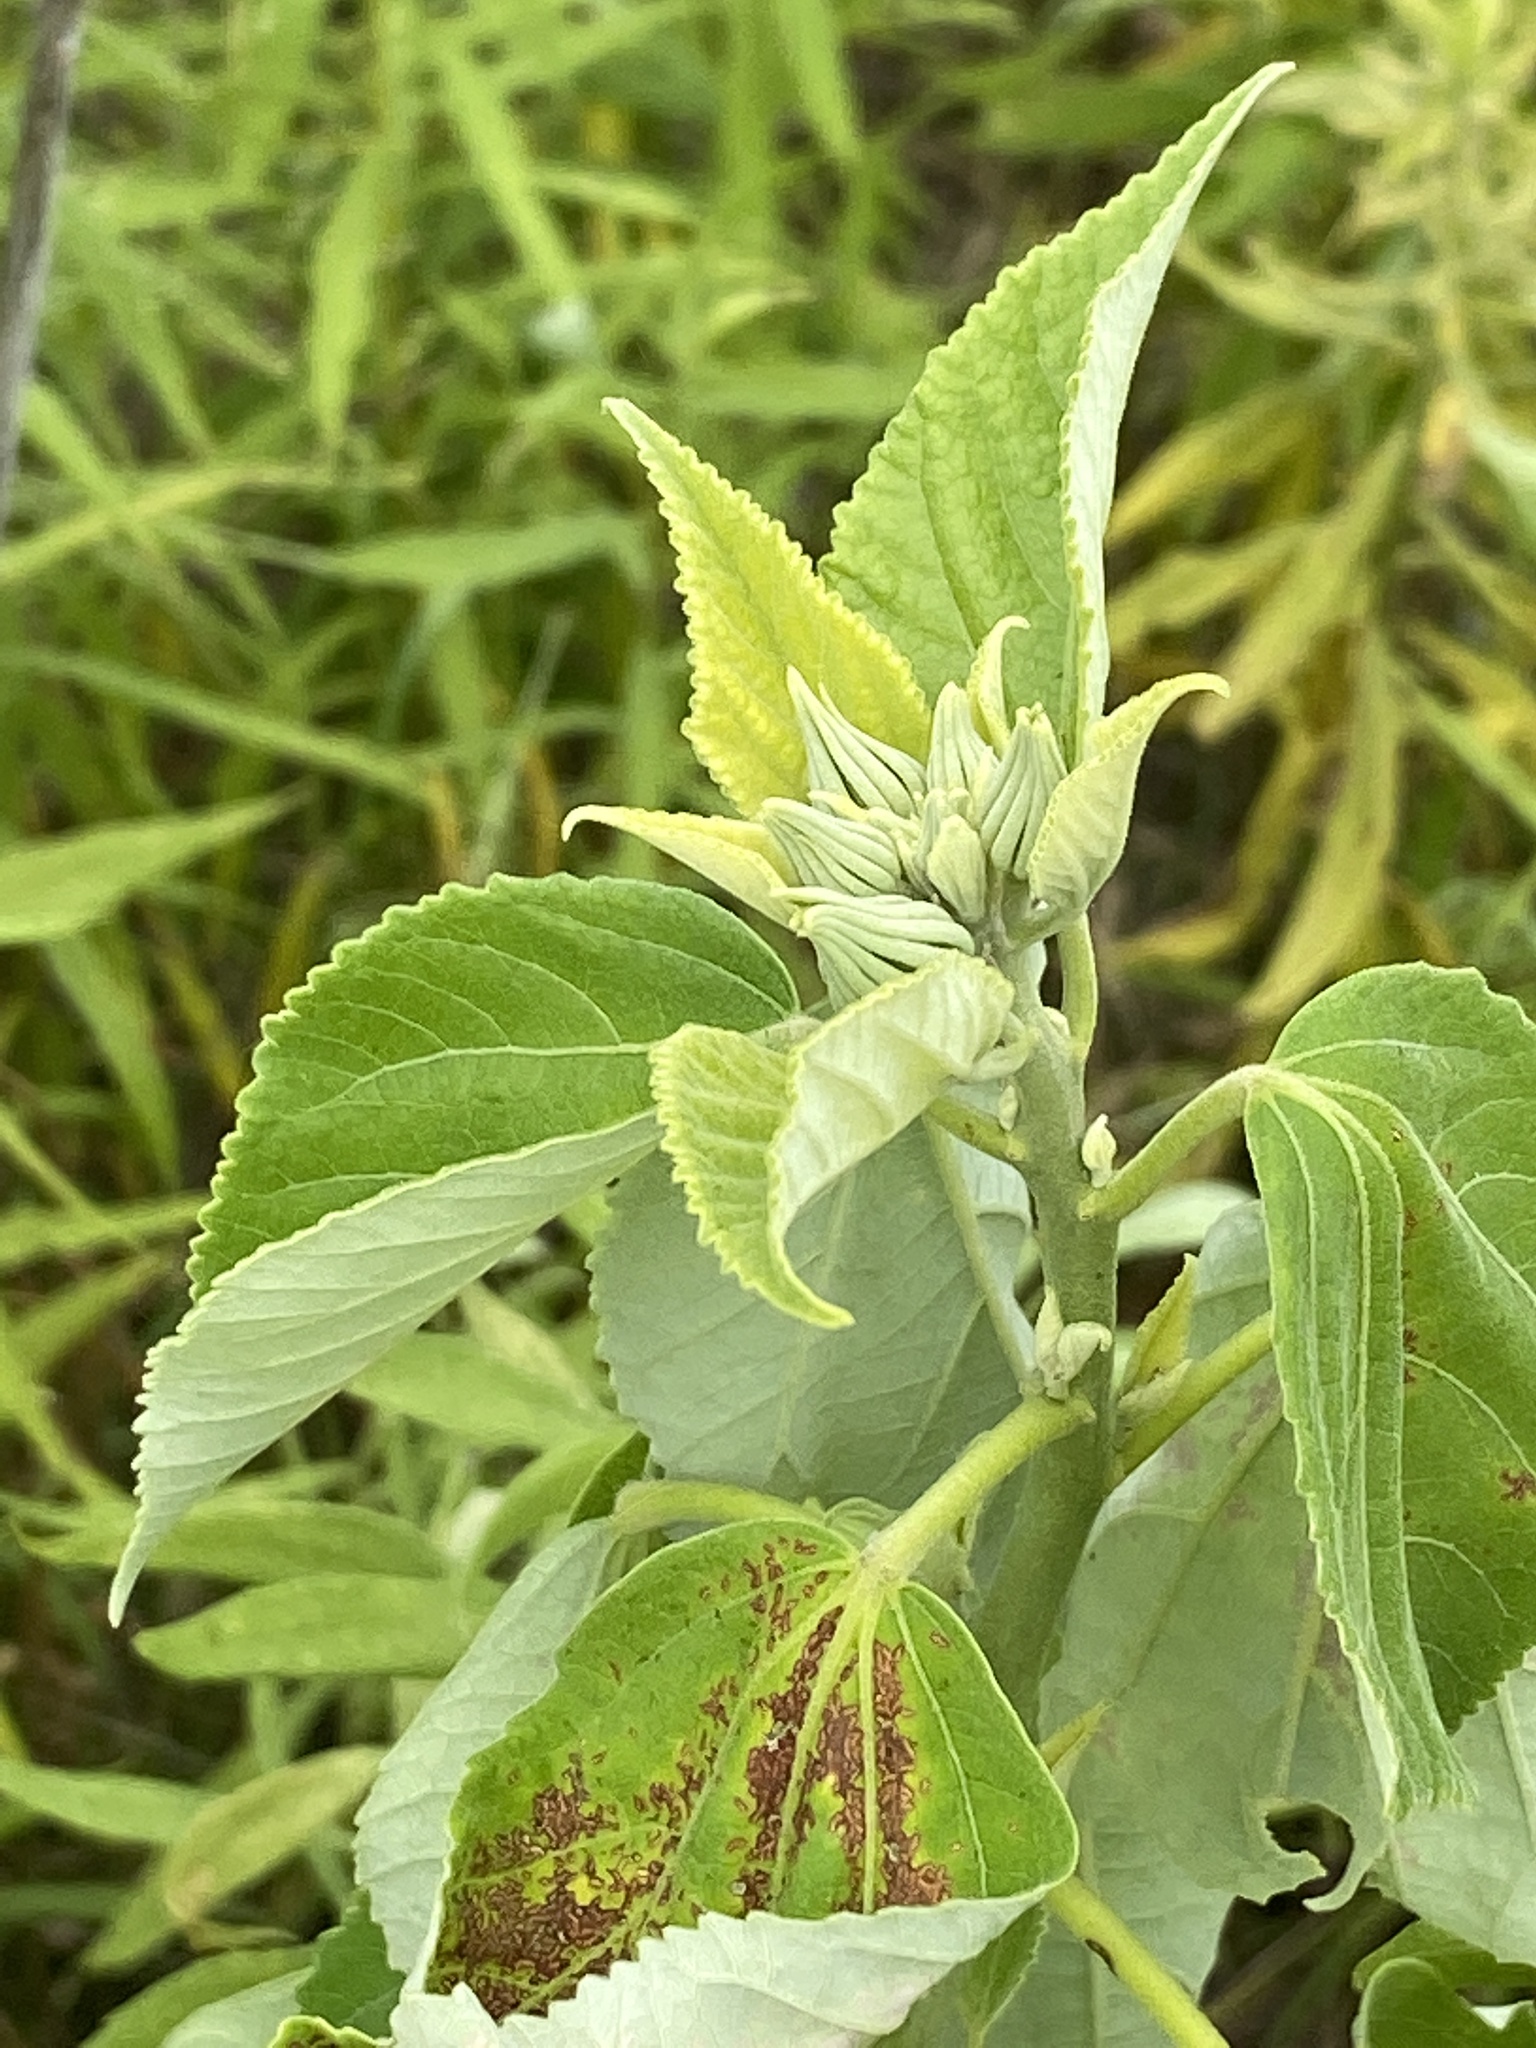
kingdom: Plantae
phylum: Tracheophyta
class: Magnoliopsida
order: Malvales
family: Malvaceae
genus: Hibiscus
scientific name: Hibiscus moscheutos
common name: Common rose-mallow
